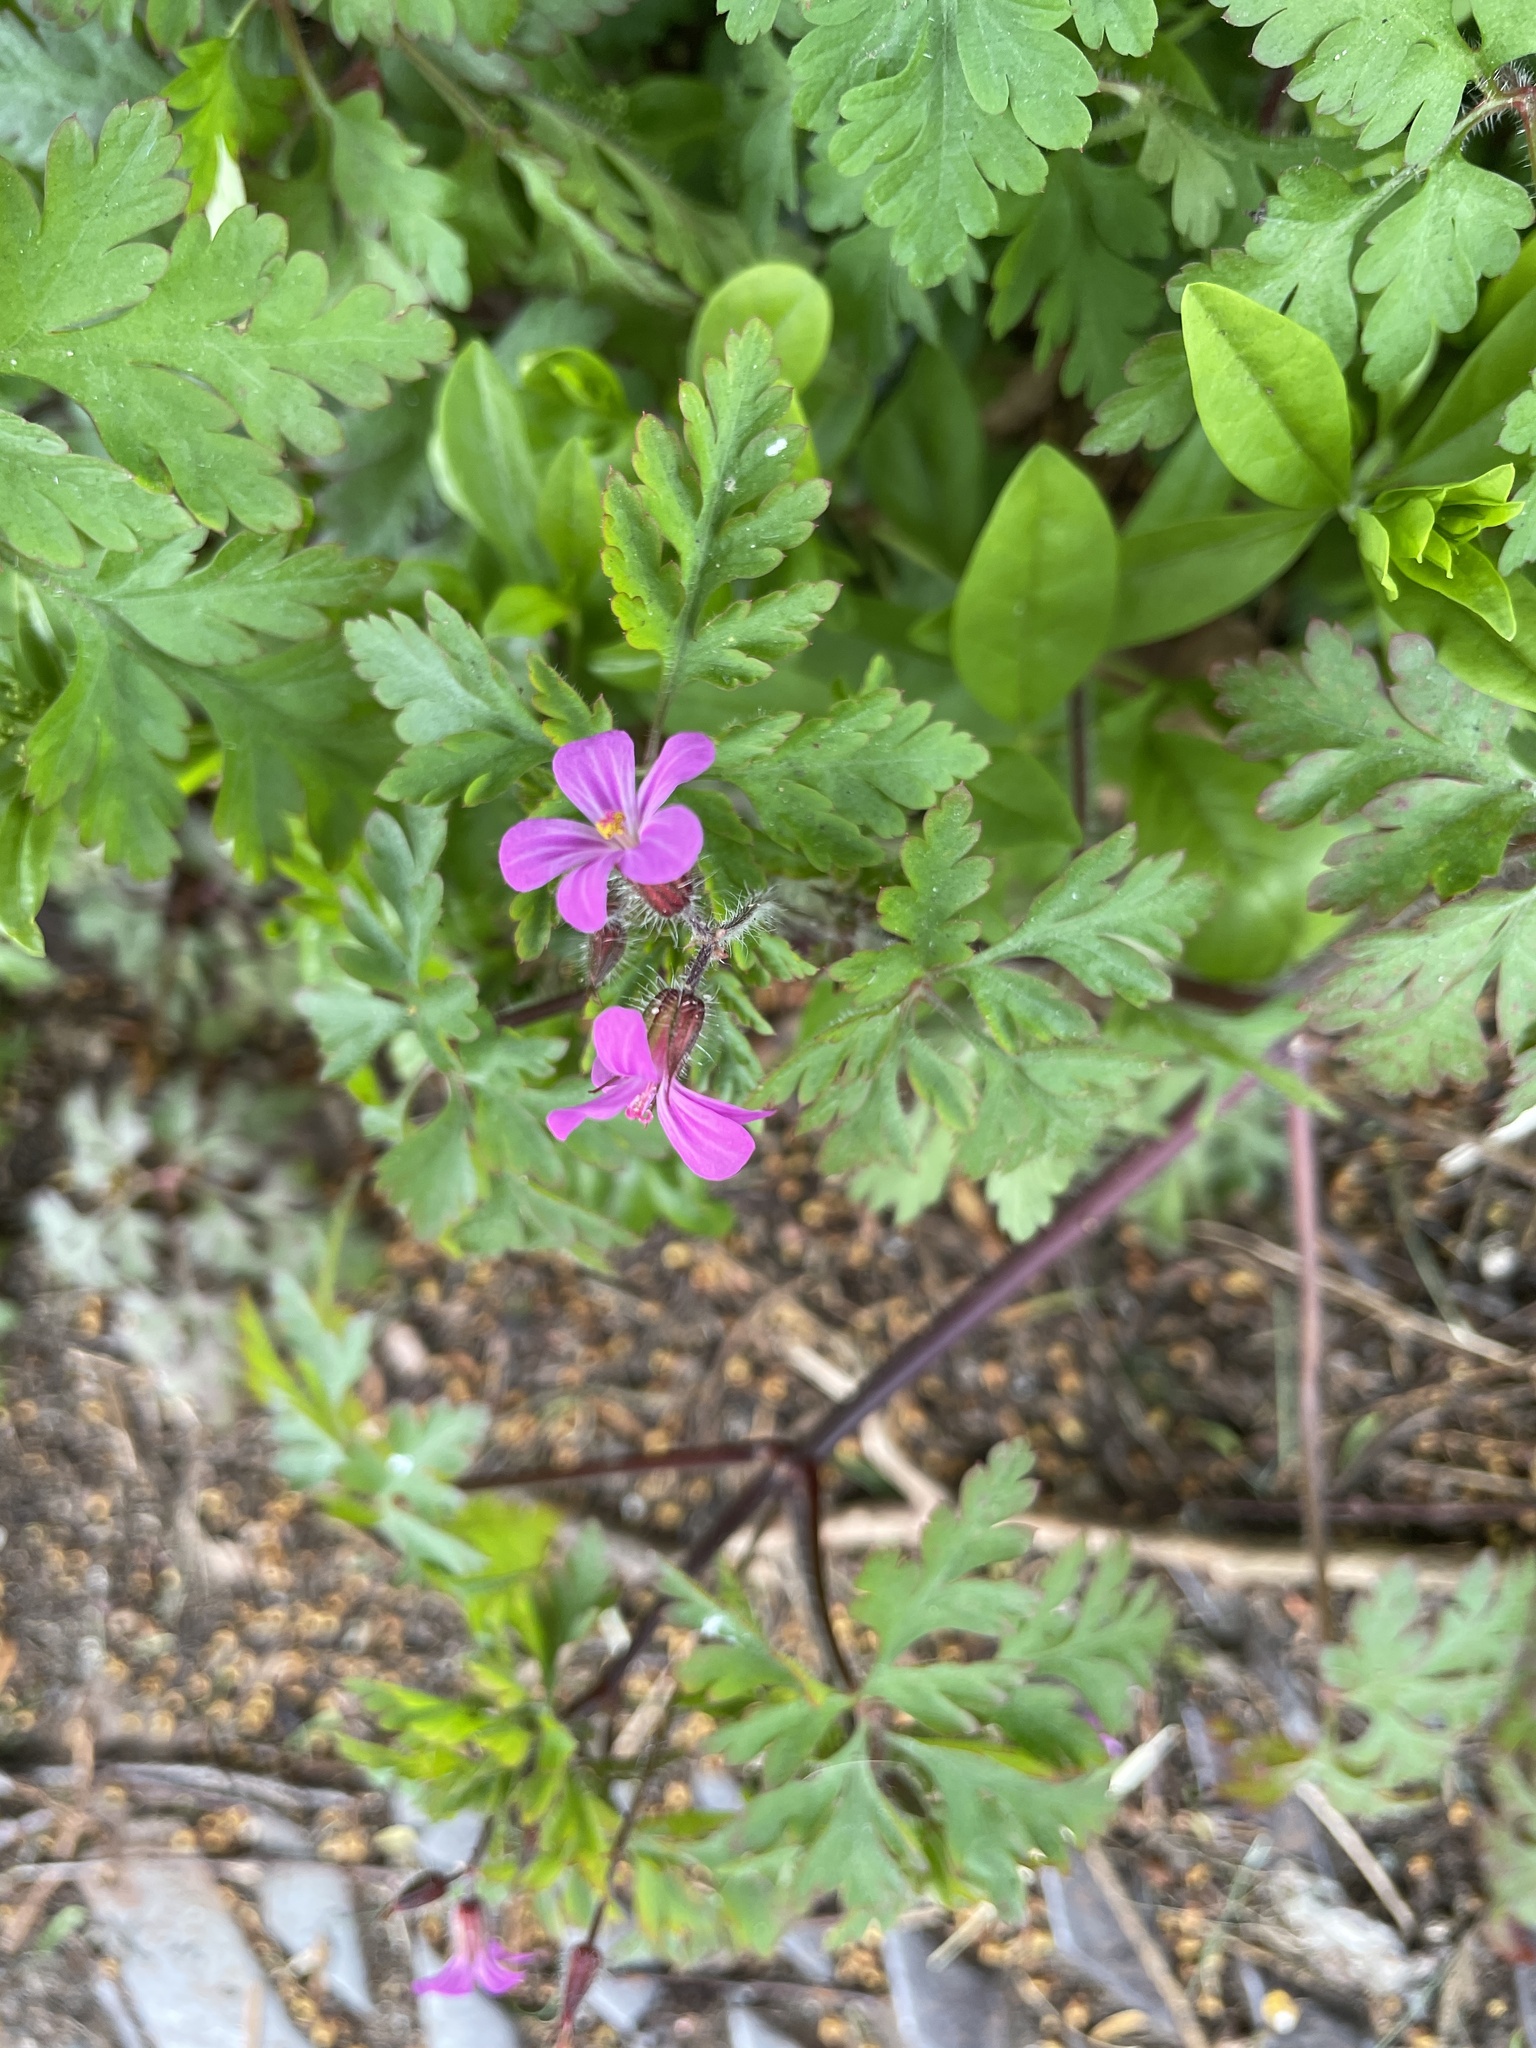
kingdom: Plantae
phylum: Tracheophyta
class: Magnoliopsida
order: Geraniales
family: Geraniaceae
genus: Geranium
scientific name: Geranium robertianum
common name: Herb-robert
